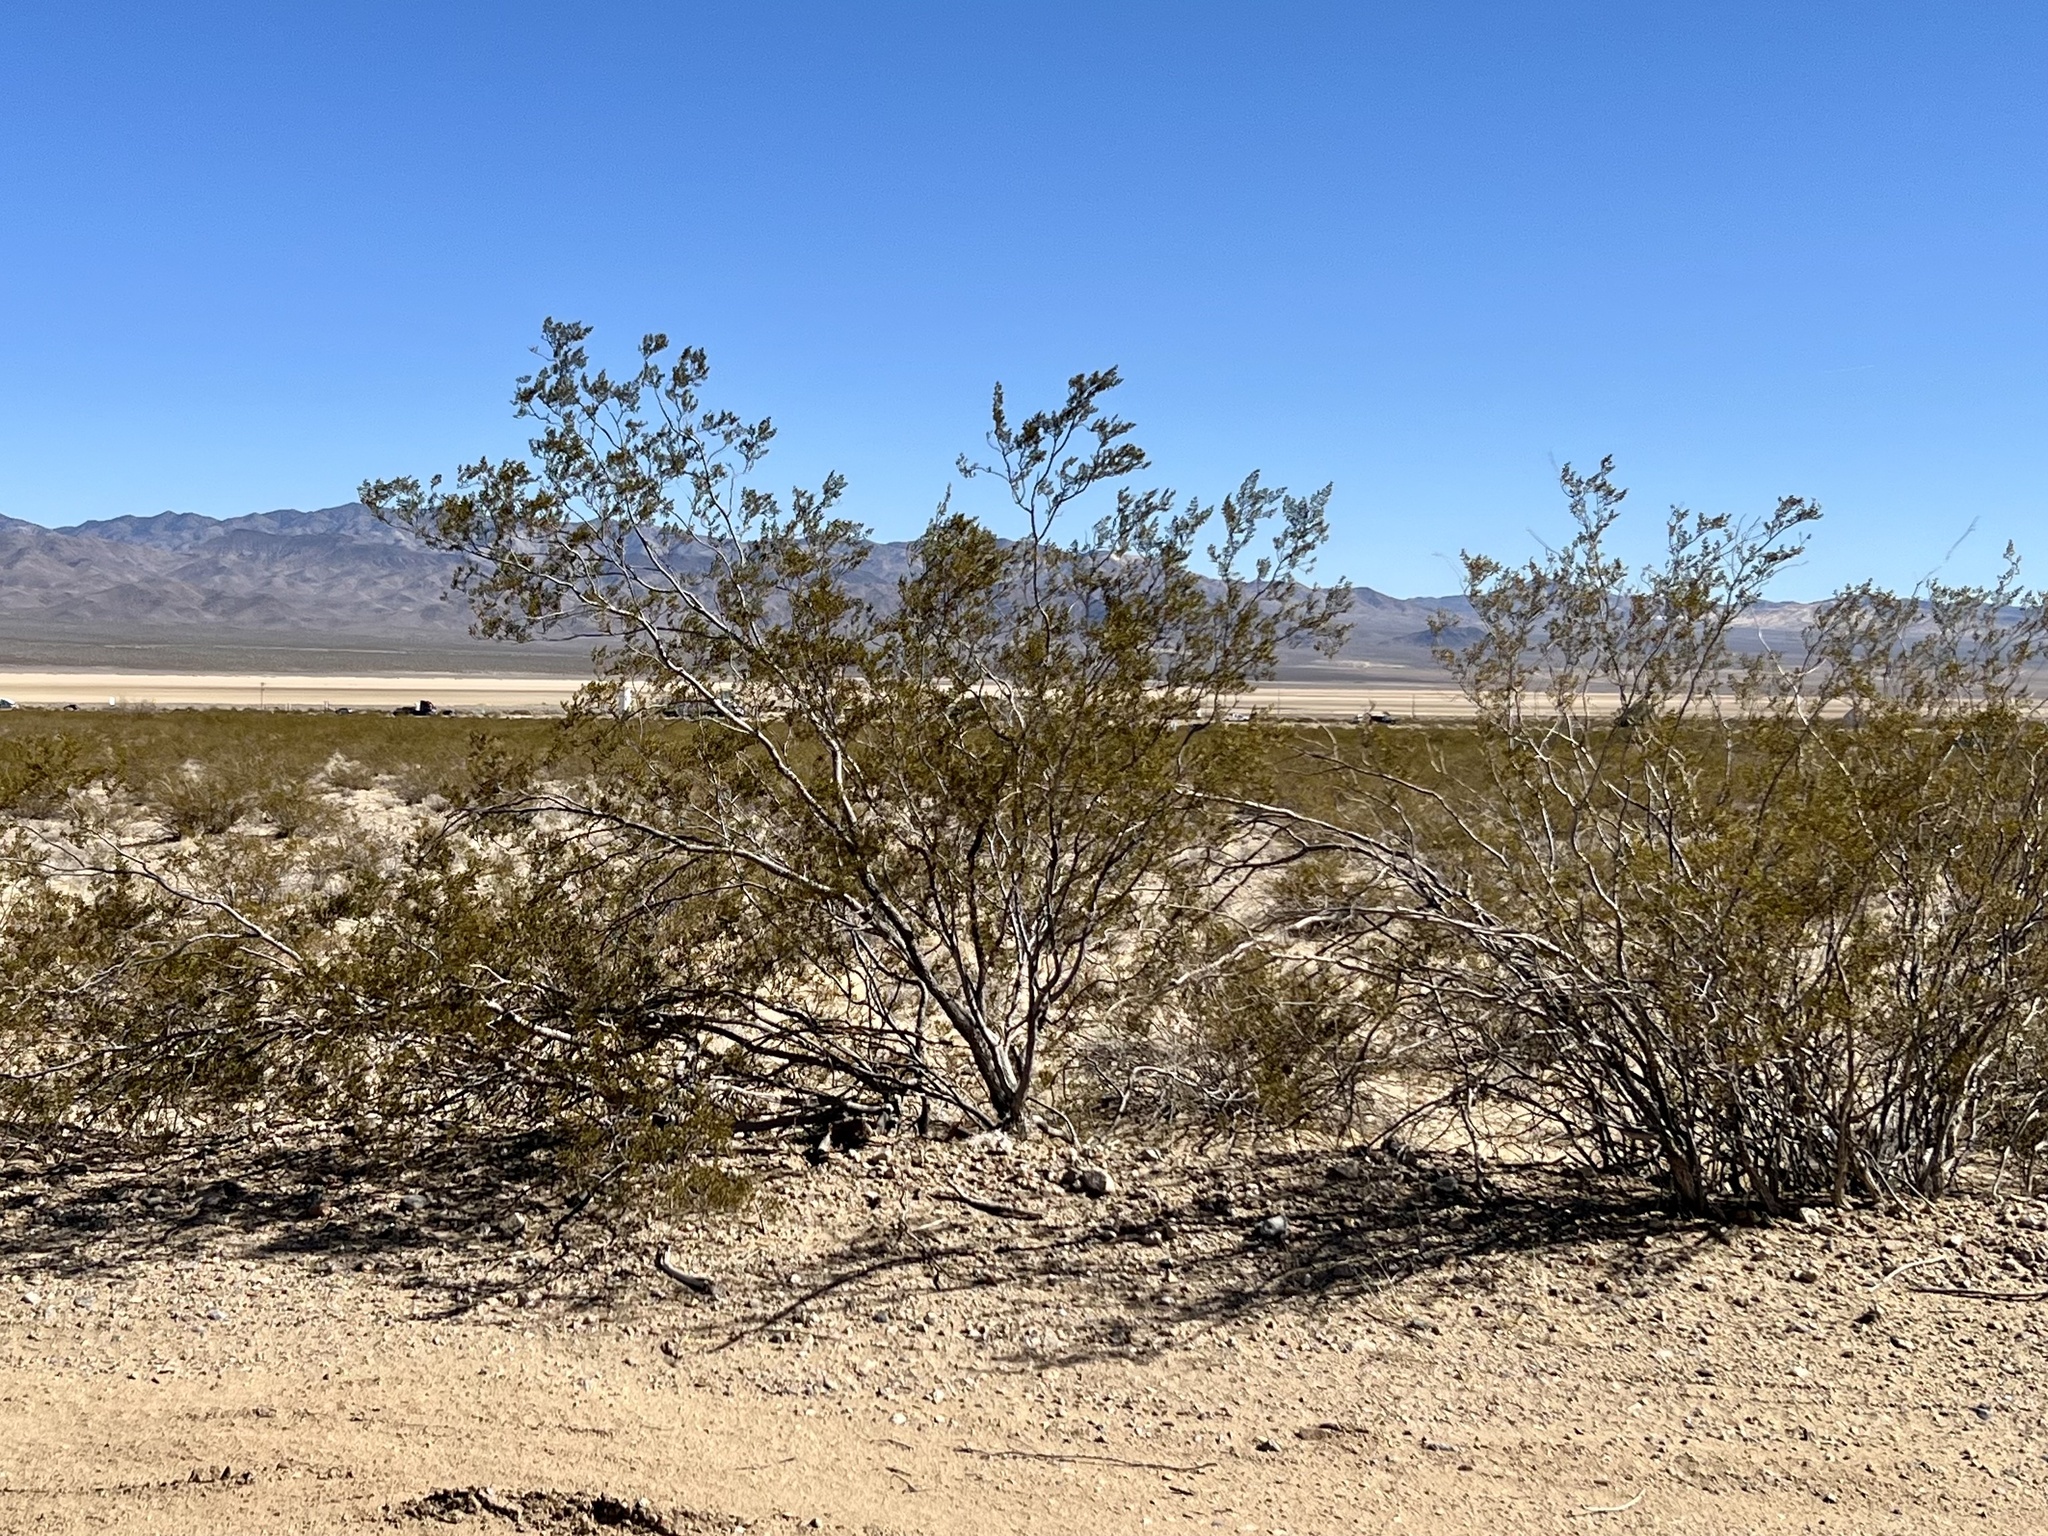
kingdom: Plantae
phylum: Tracheophyta
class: Magnoliopsida
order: Zygophyllales
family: Zygophyllaceae
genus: Larrea
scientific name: Larrea tridentata
